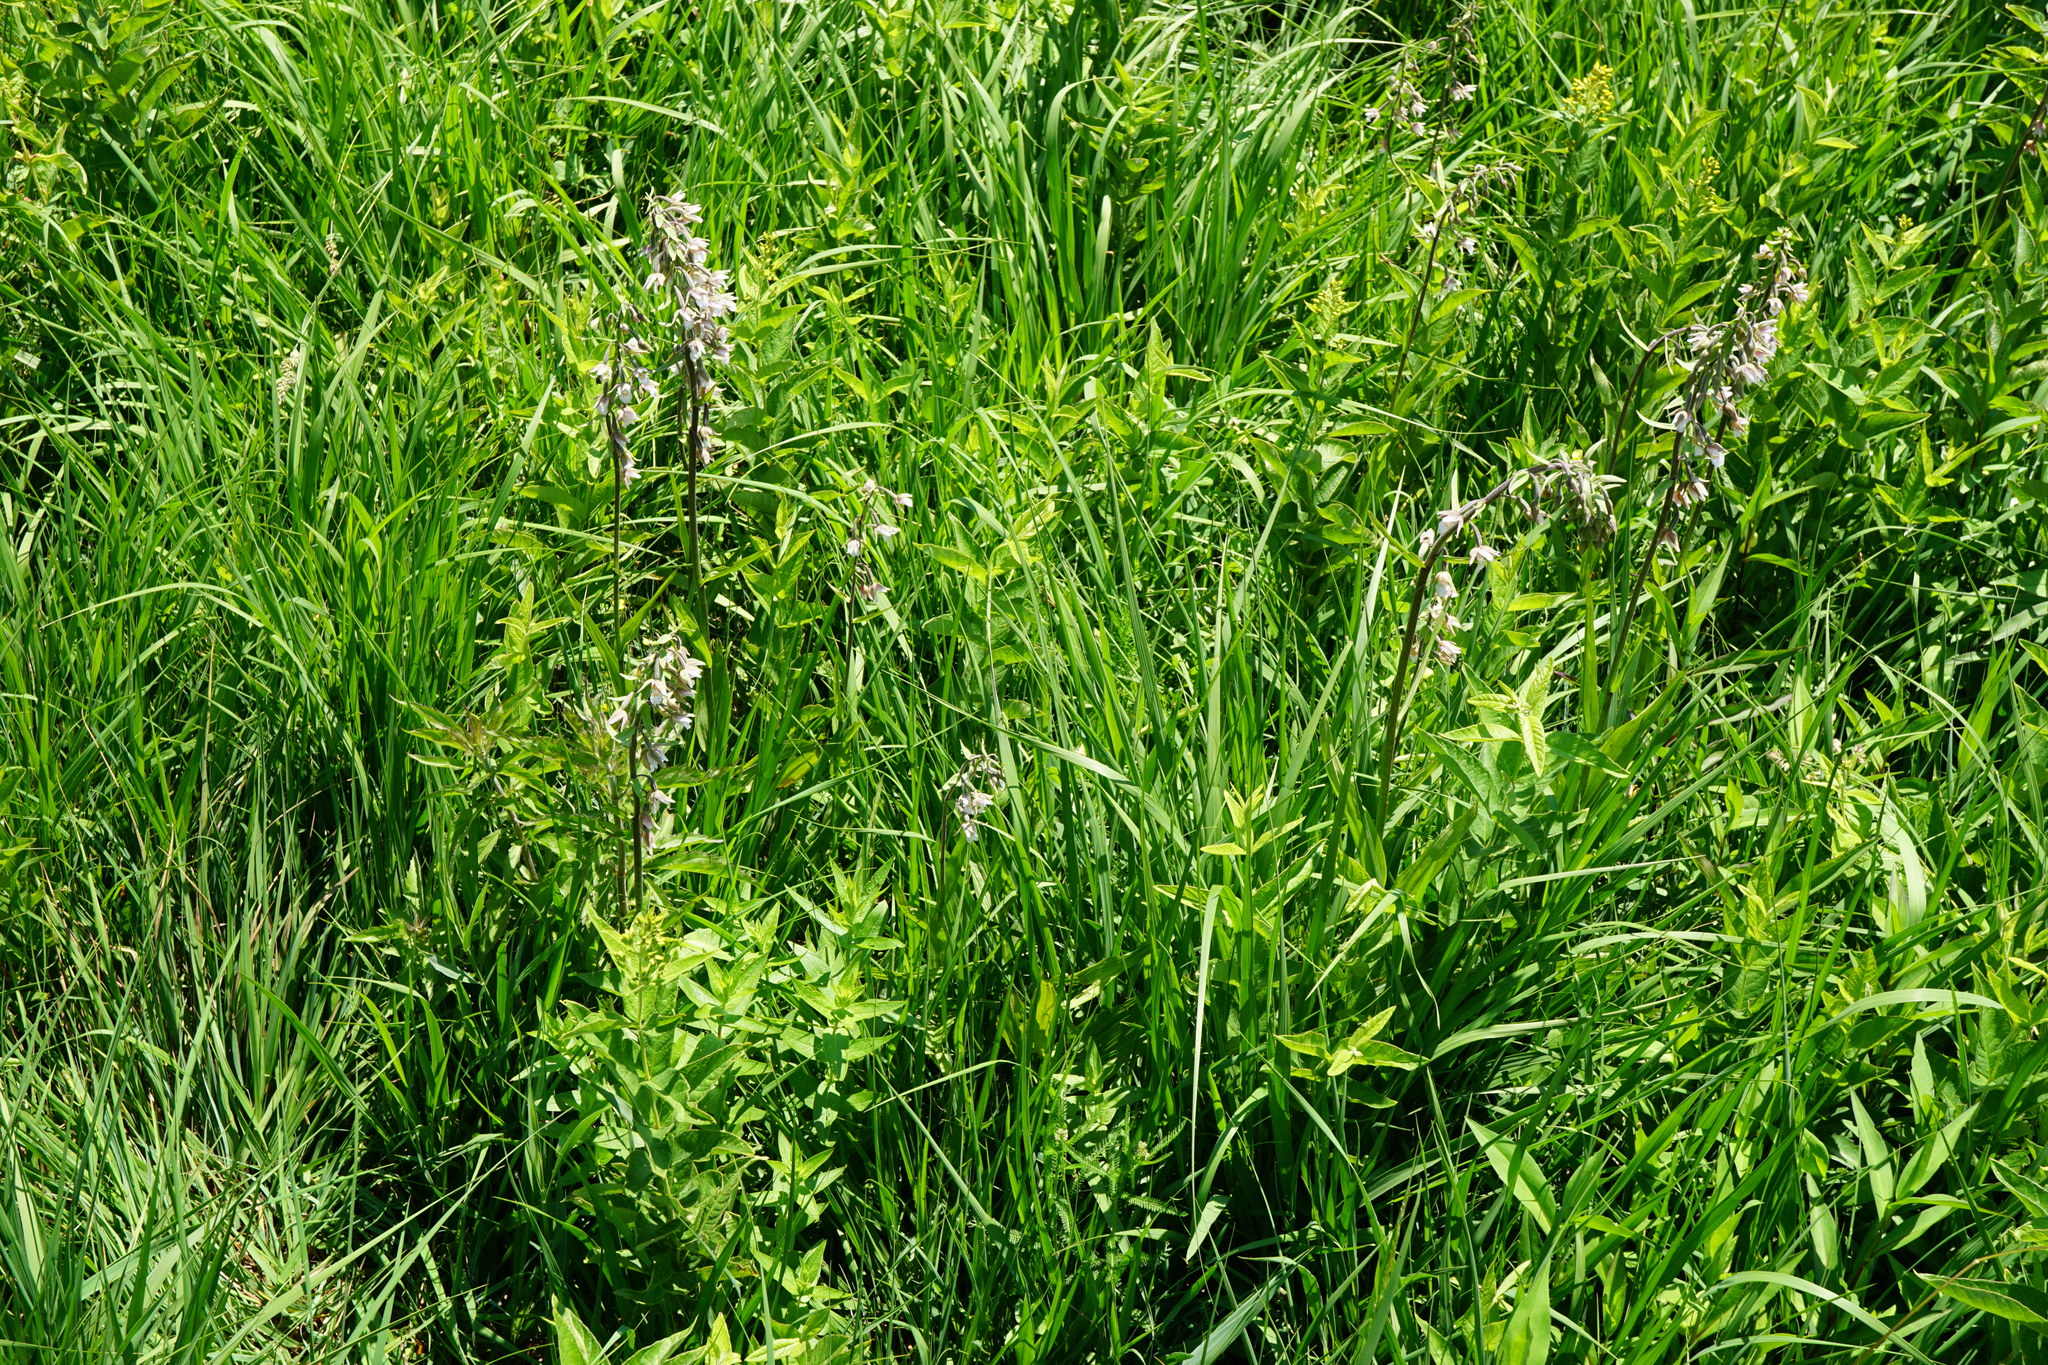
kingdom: Plantae
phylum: Tracheophyta
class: Liliopsida
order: Asparagales
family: Orchidaceae
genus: Epipactis
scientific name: Epipactis palustris
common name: Marsh helleborine
